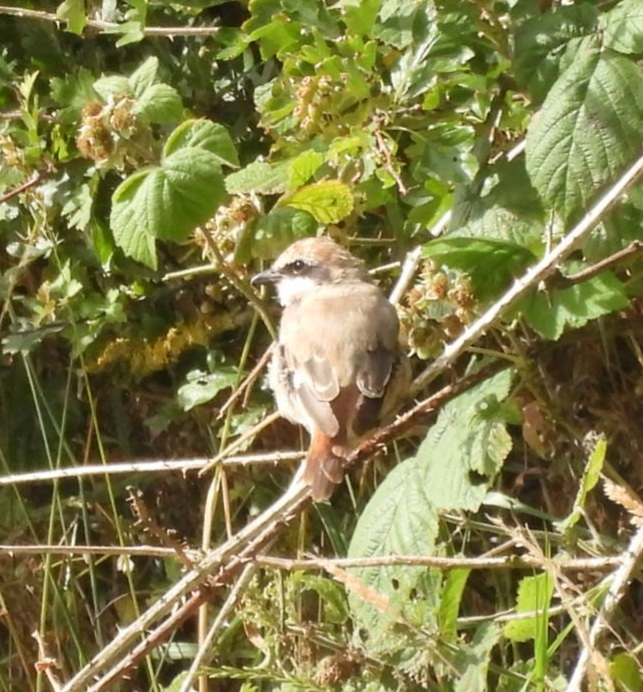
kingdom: Animalia
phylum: Chordata
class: Aves
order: Passeriformes
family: Laniidae
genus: Lanius
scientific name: Lanius phoenicuroides
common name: Red-tailed shrike
